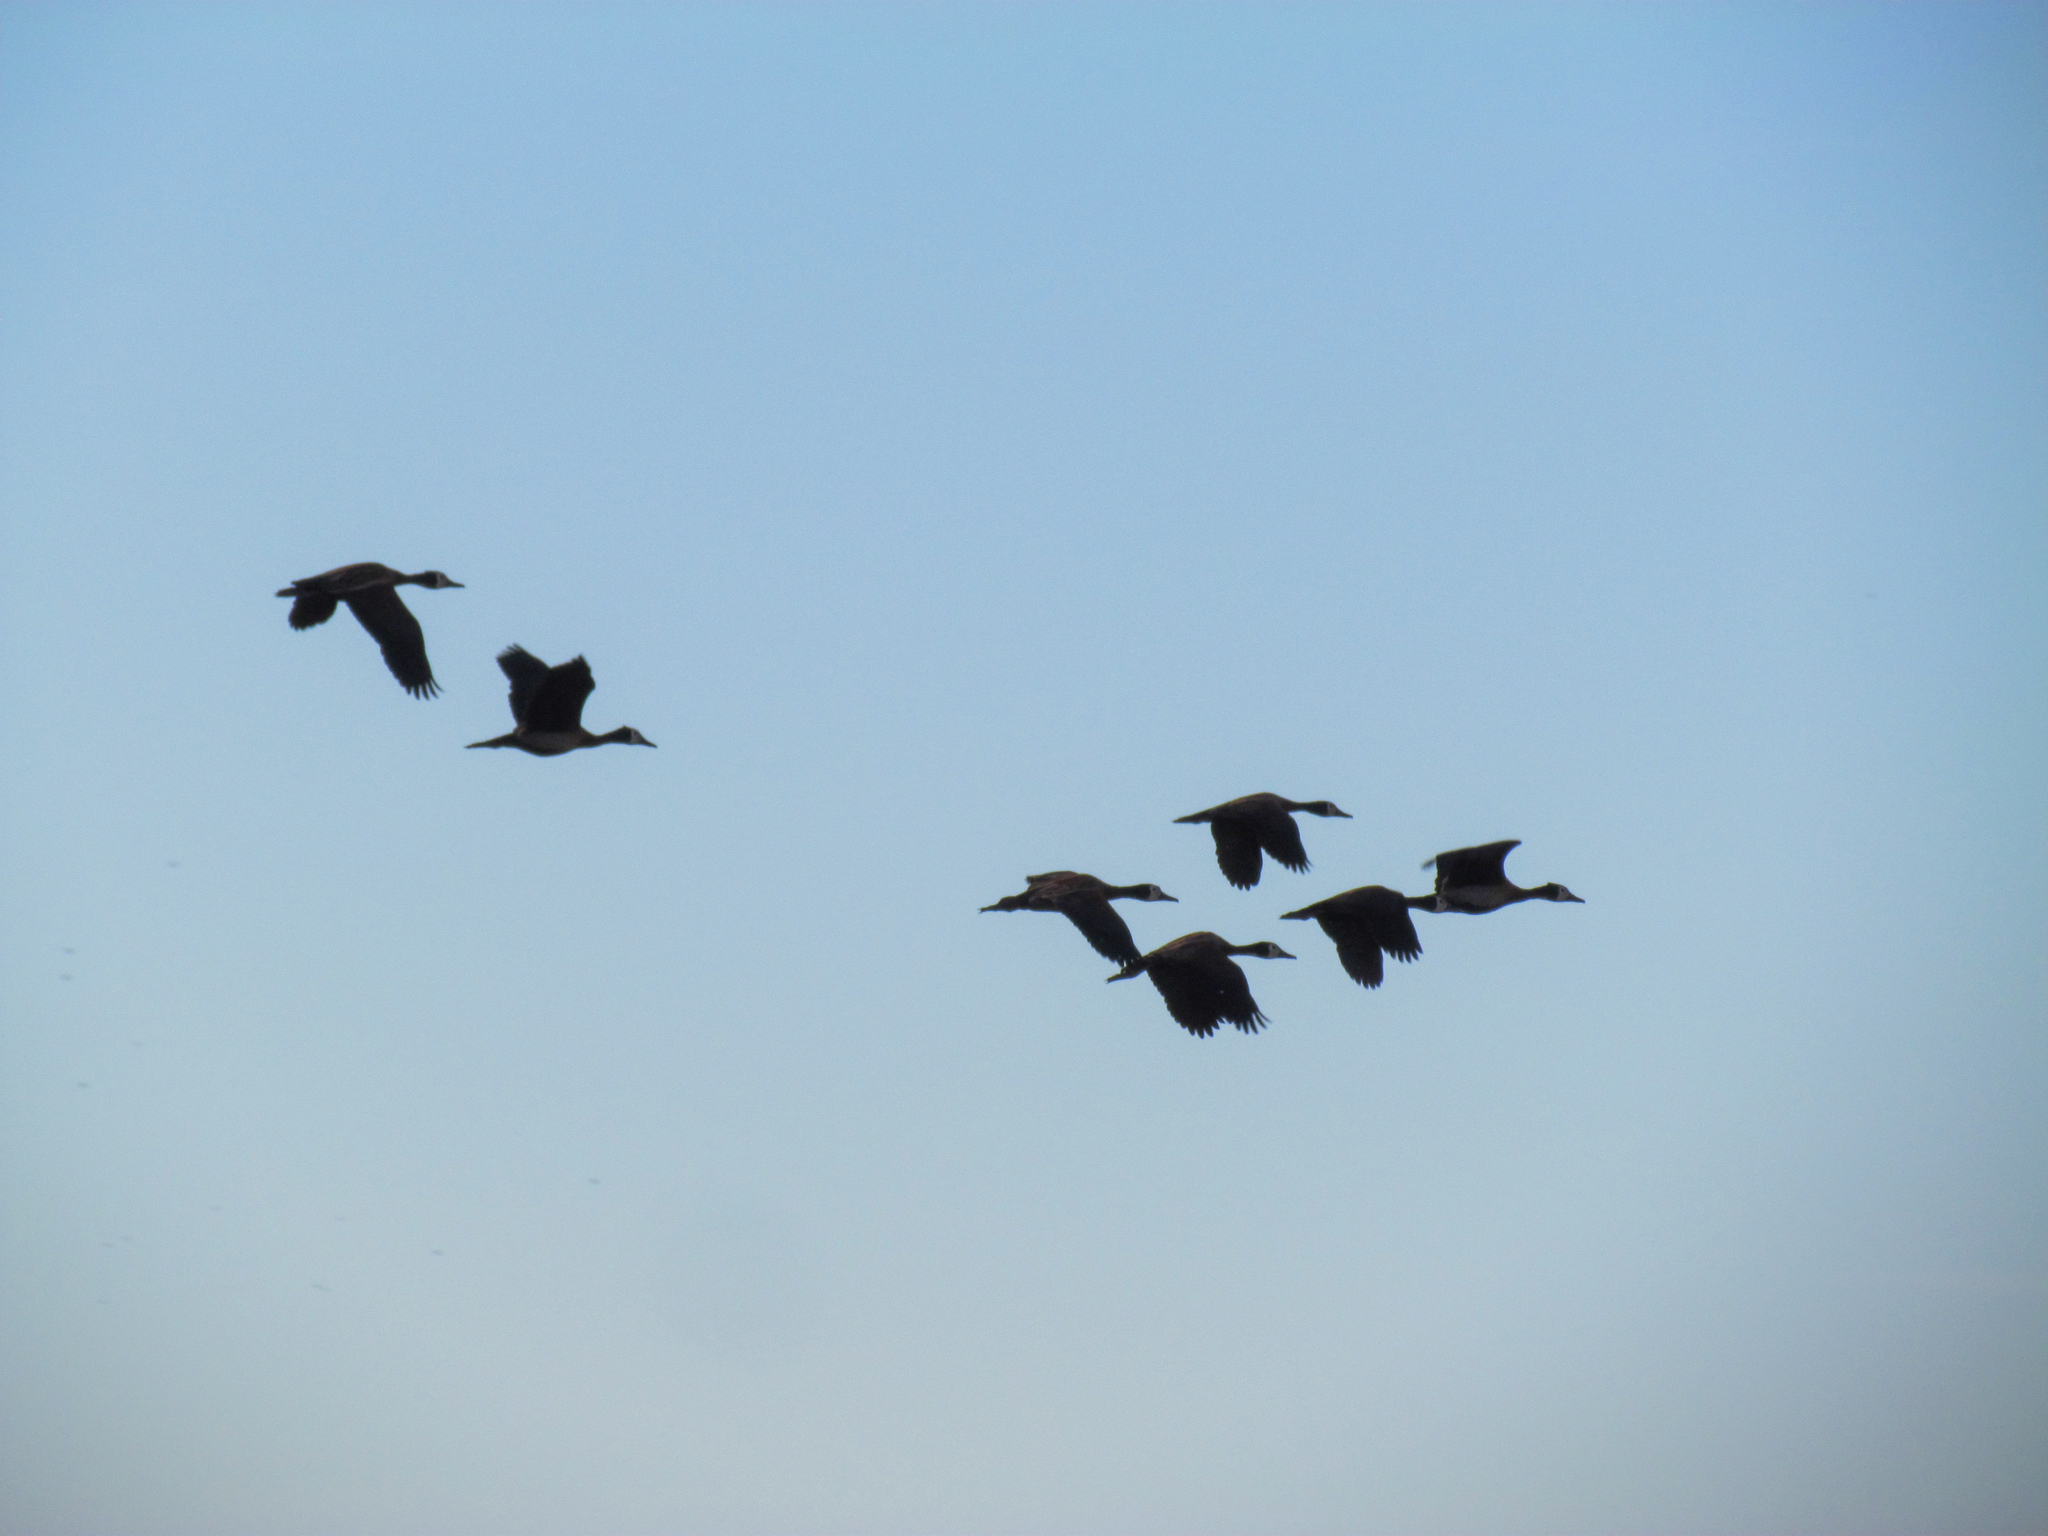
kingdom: Animalia
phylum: Chordata
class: Aves
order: Anseriformes
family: Anatidae
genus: Dendrocygna
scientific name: Dendrocygna viduata
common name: White-faced whistling duck
